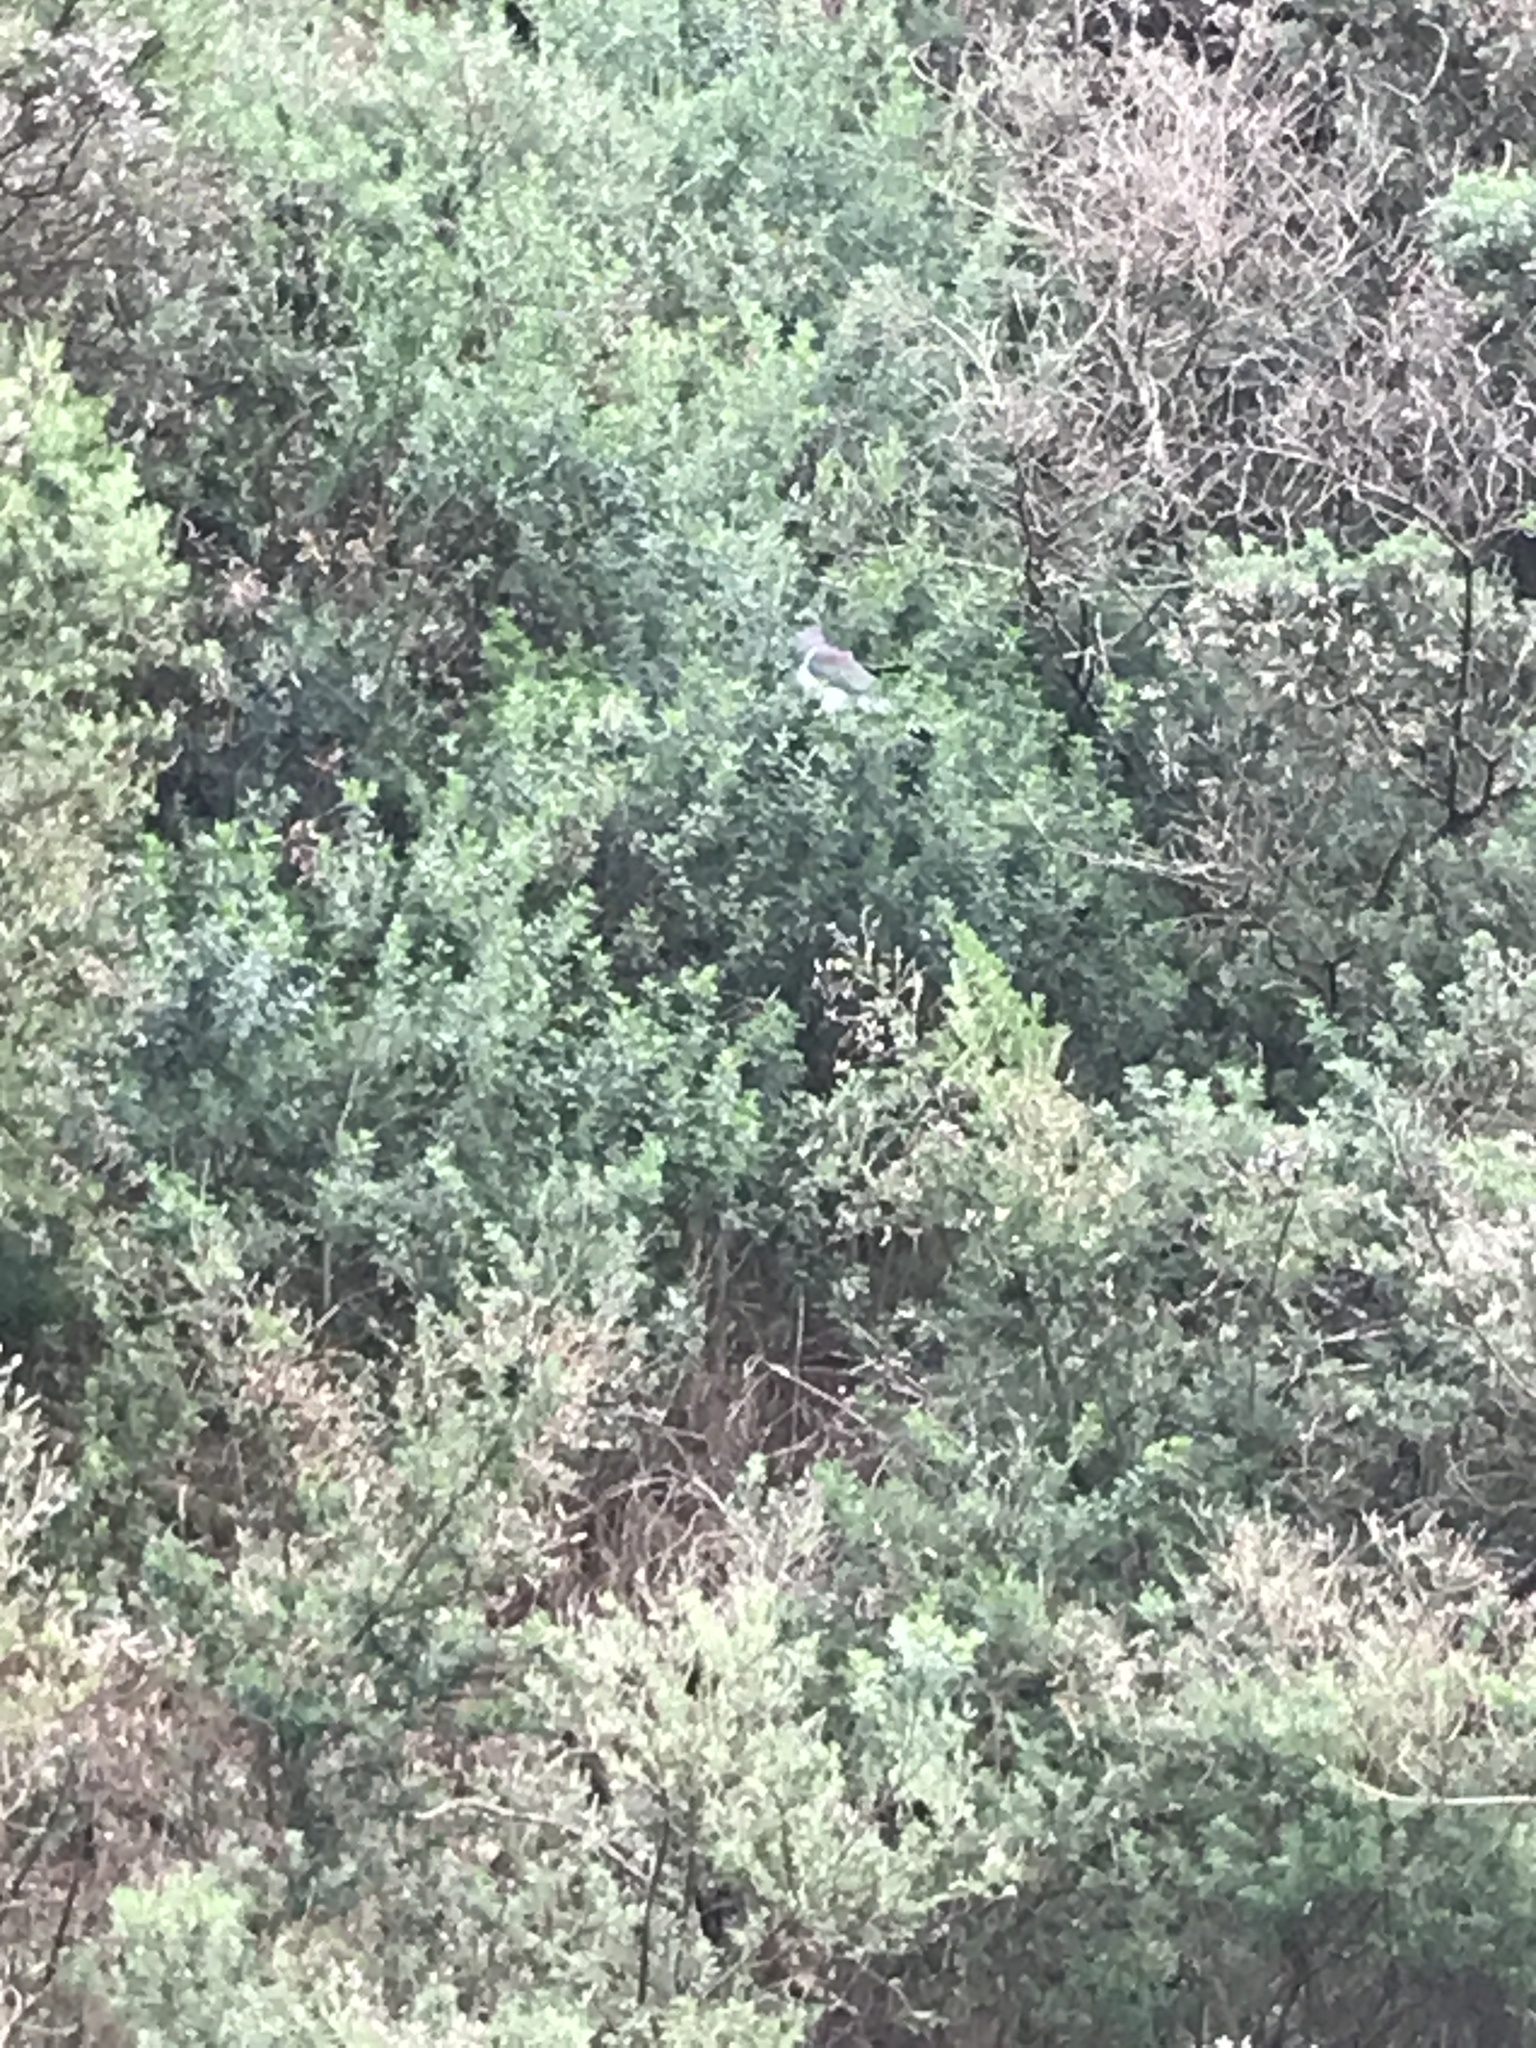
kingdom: Animalia
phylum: Chordata
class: Aves
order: Columbiformes
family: Columbidae
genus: Hemiphaga
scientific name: Hemiphaga novaeseelandiae
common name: New zealand pigeon
